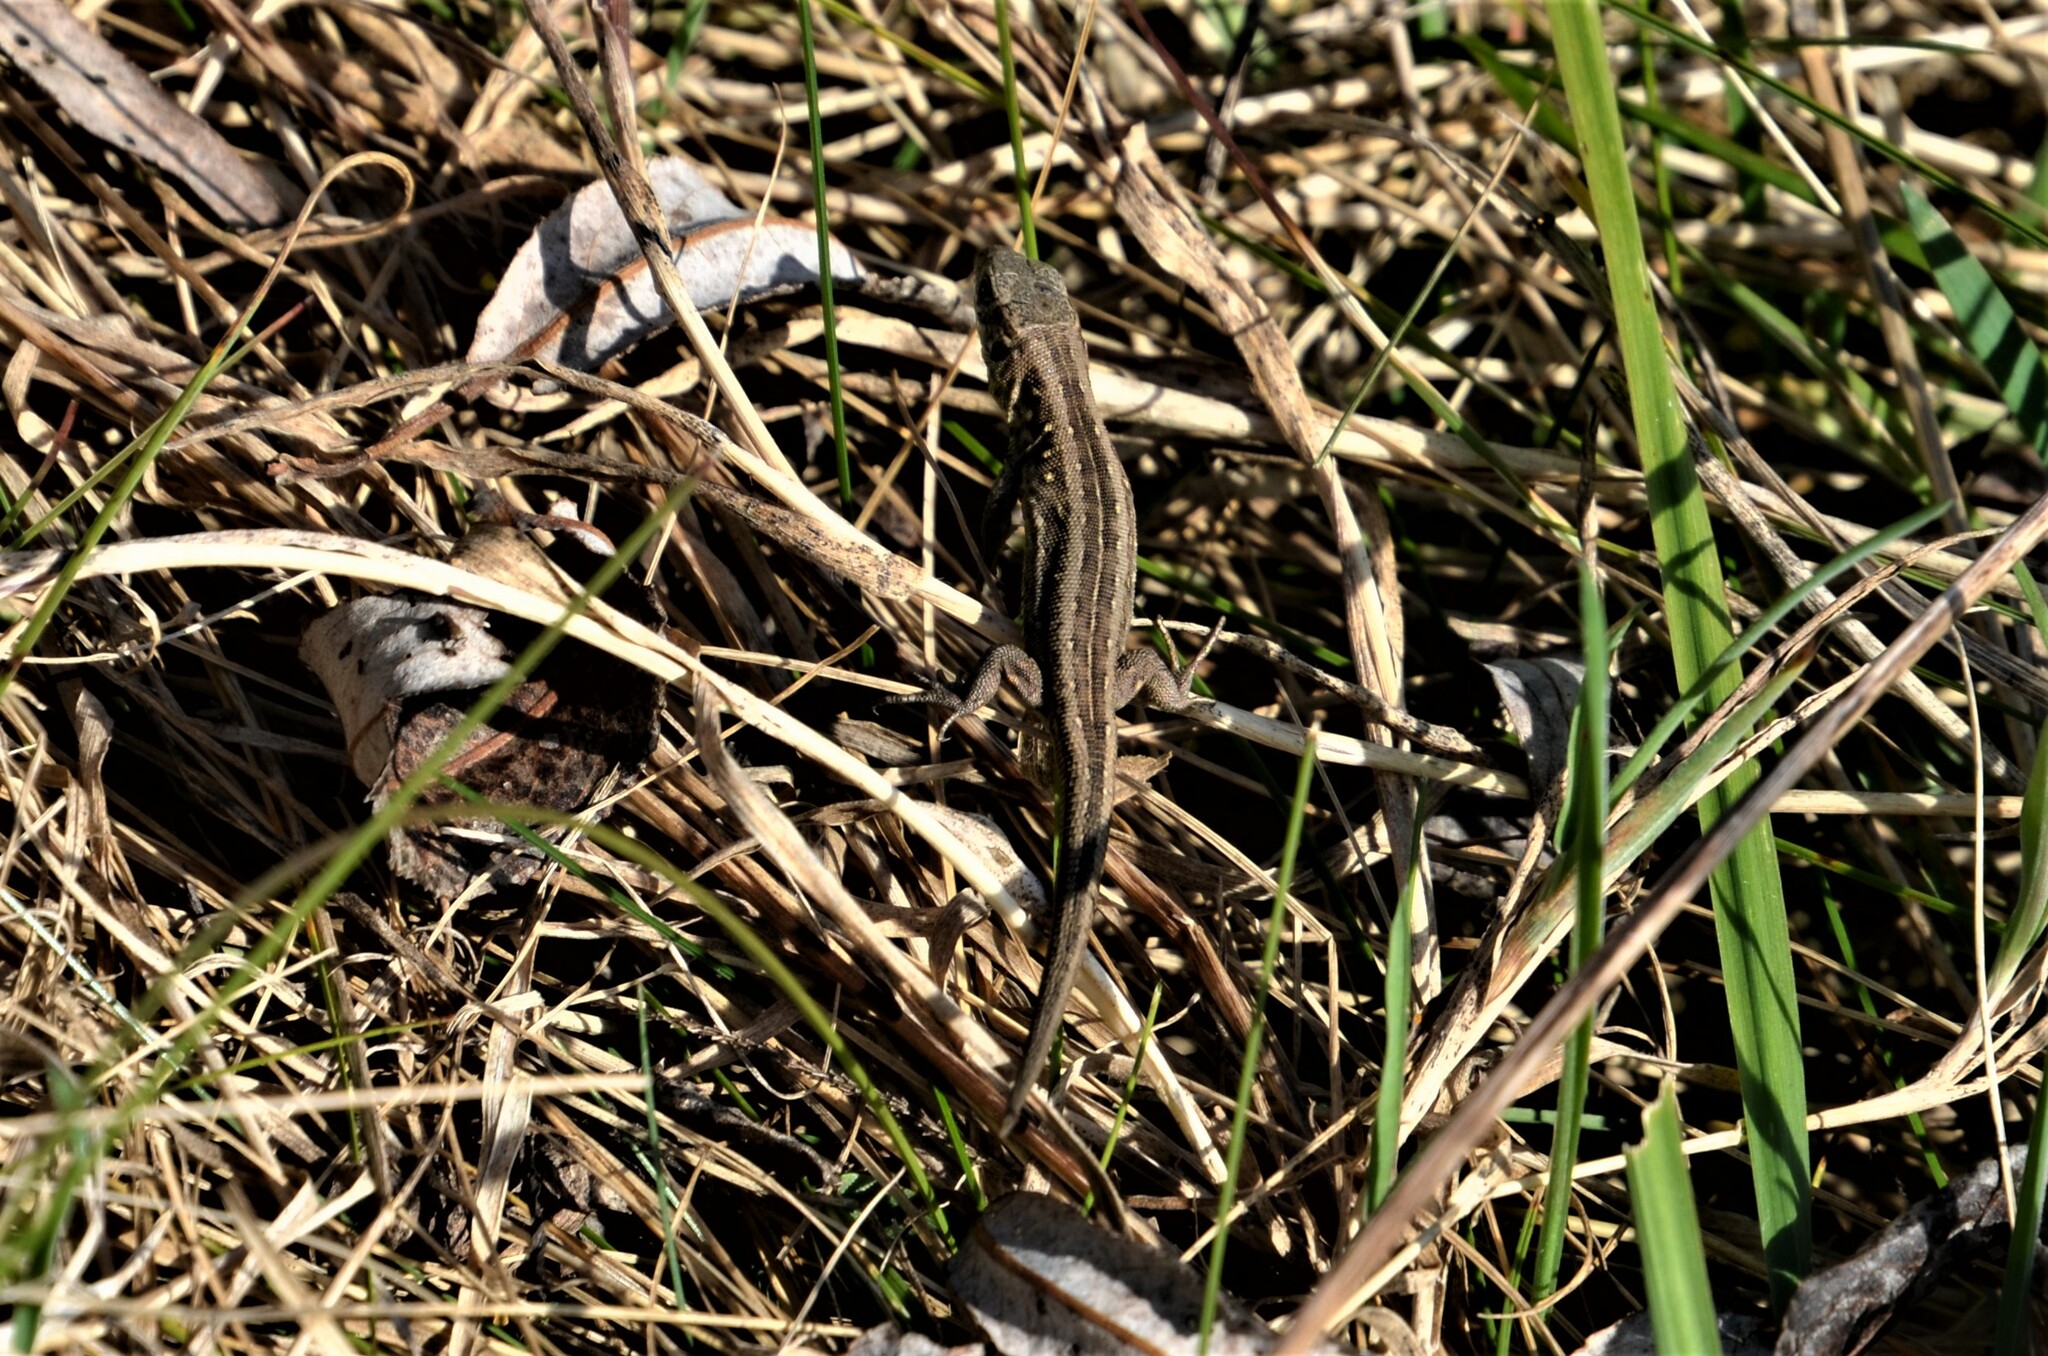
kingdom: Animalia
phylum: Chordata
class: Squamata
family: Lacertidae
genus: Lacerta
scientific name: Lacerta agilis
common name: Sand lizard
